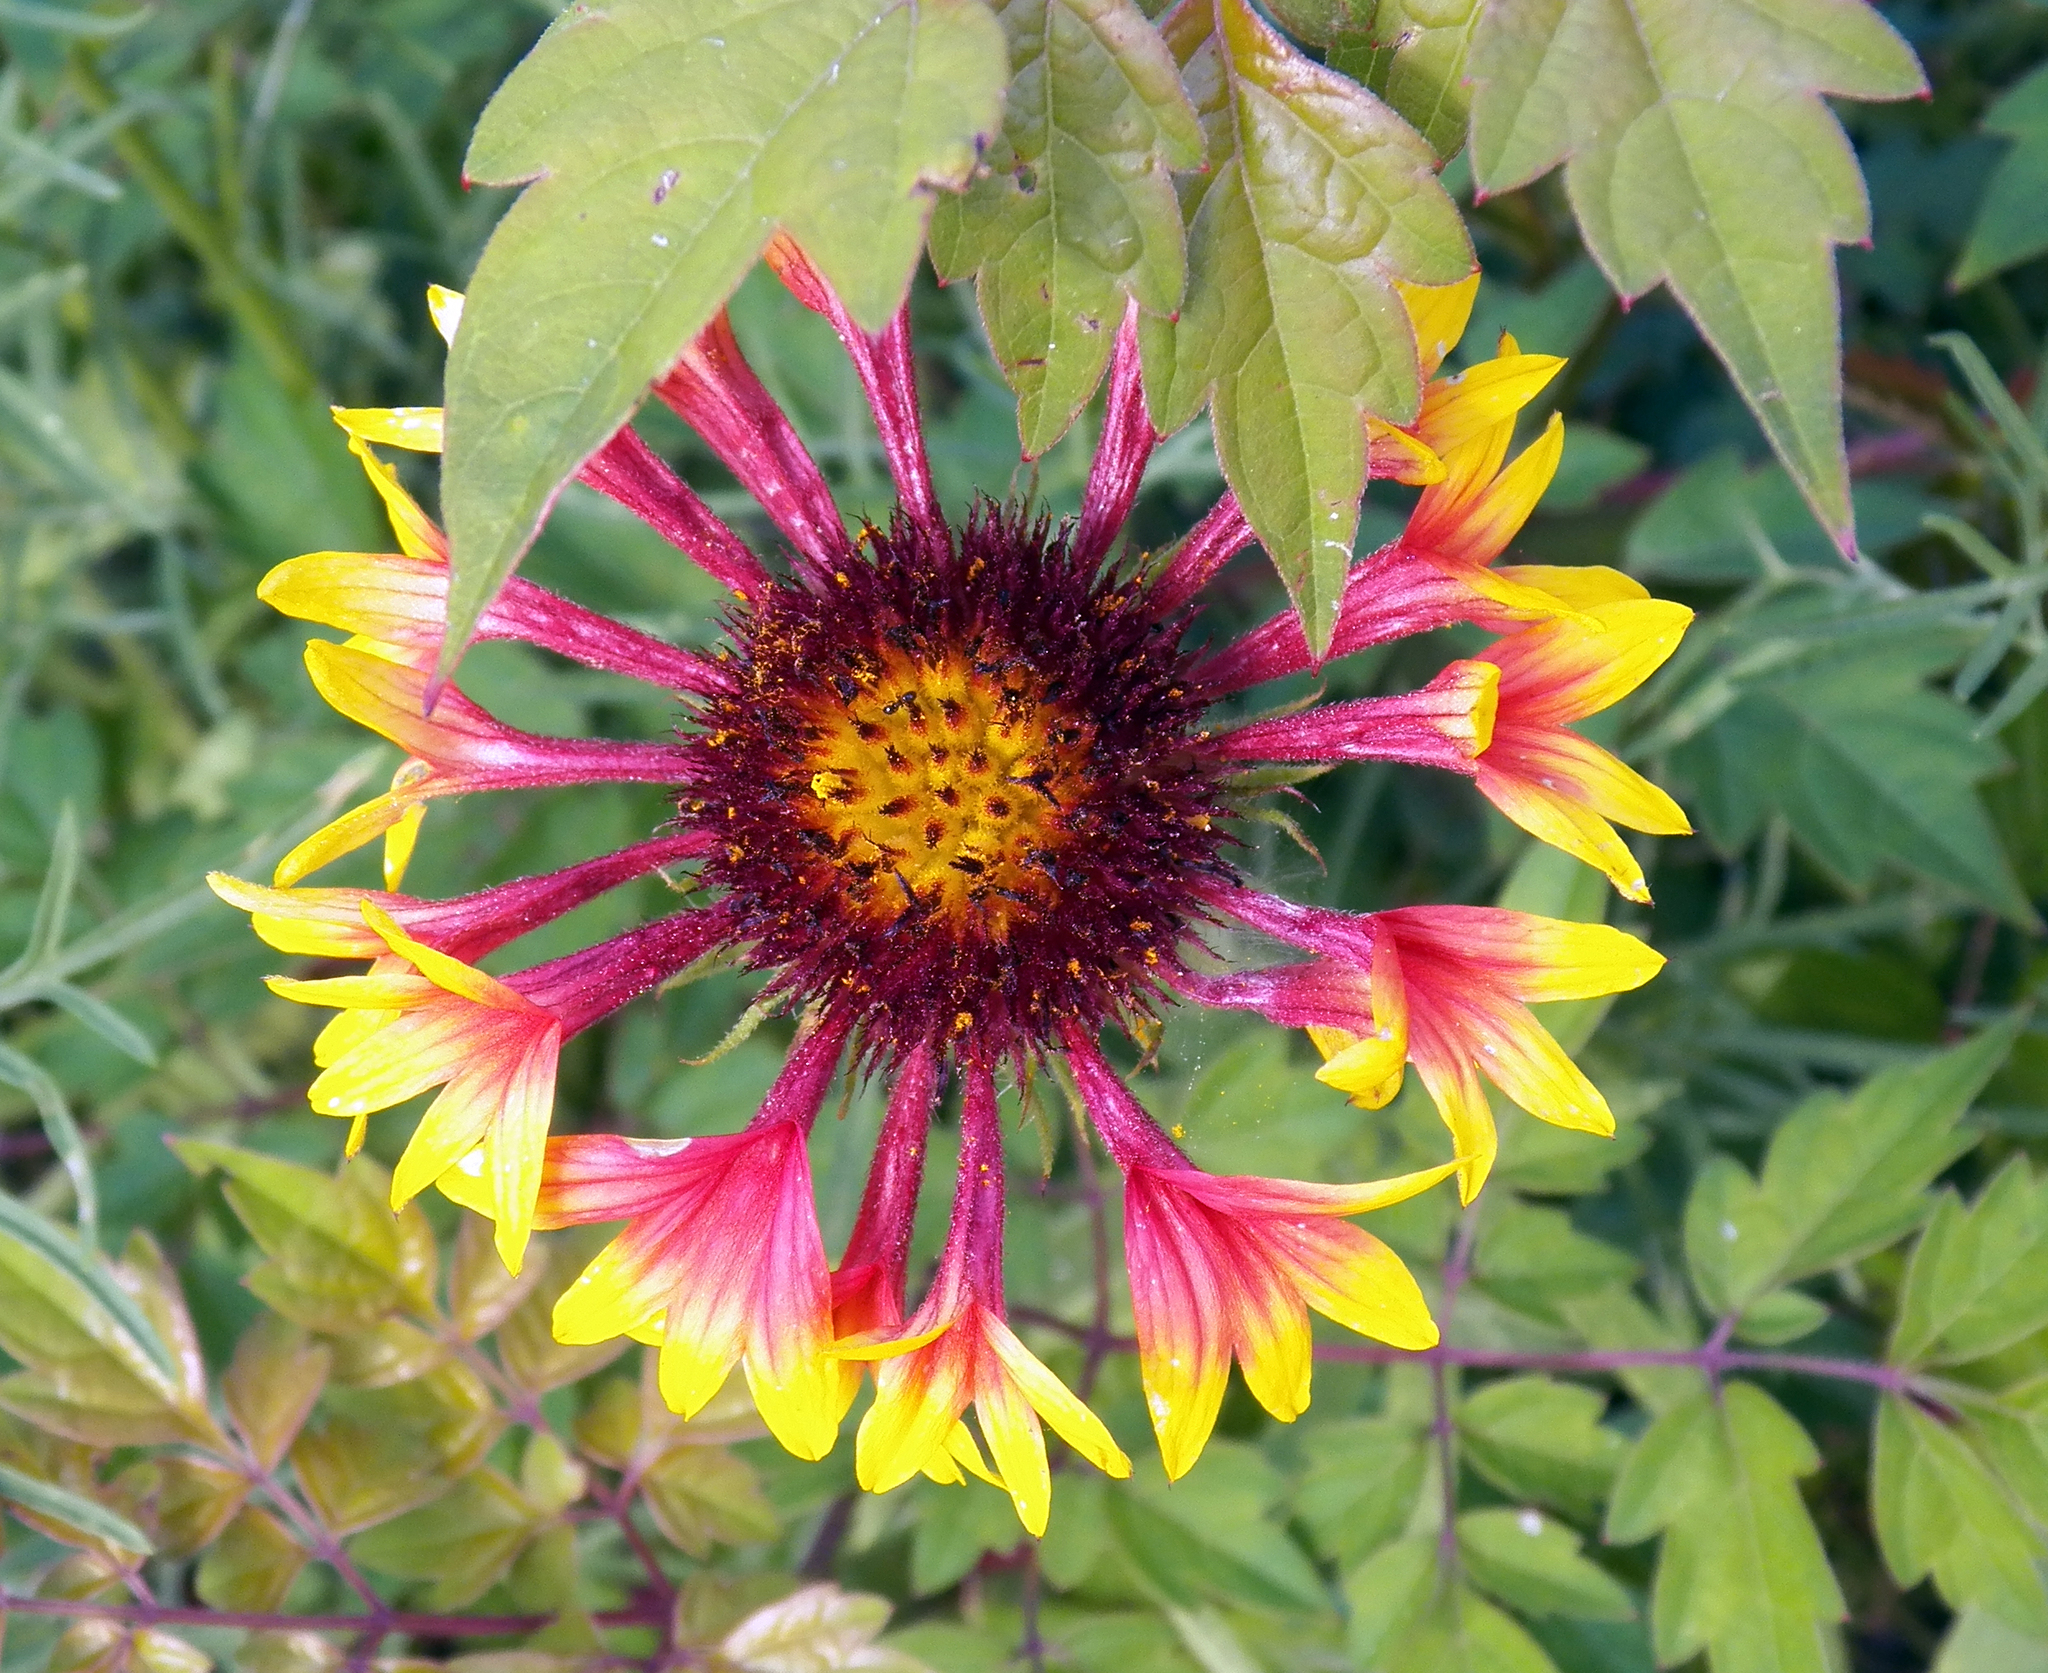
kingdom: Plantae
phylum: Tracheophyta
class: Magnoliopsida
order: Asterales
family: Asteraceae
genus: Gaillardia
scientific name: Gaillardia aestivalis
